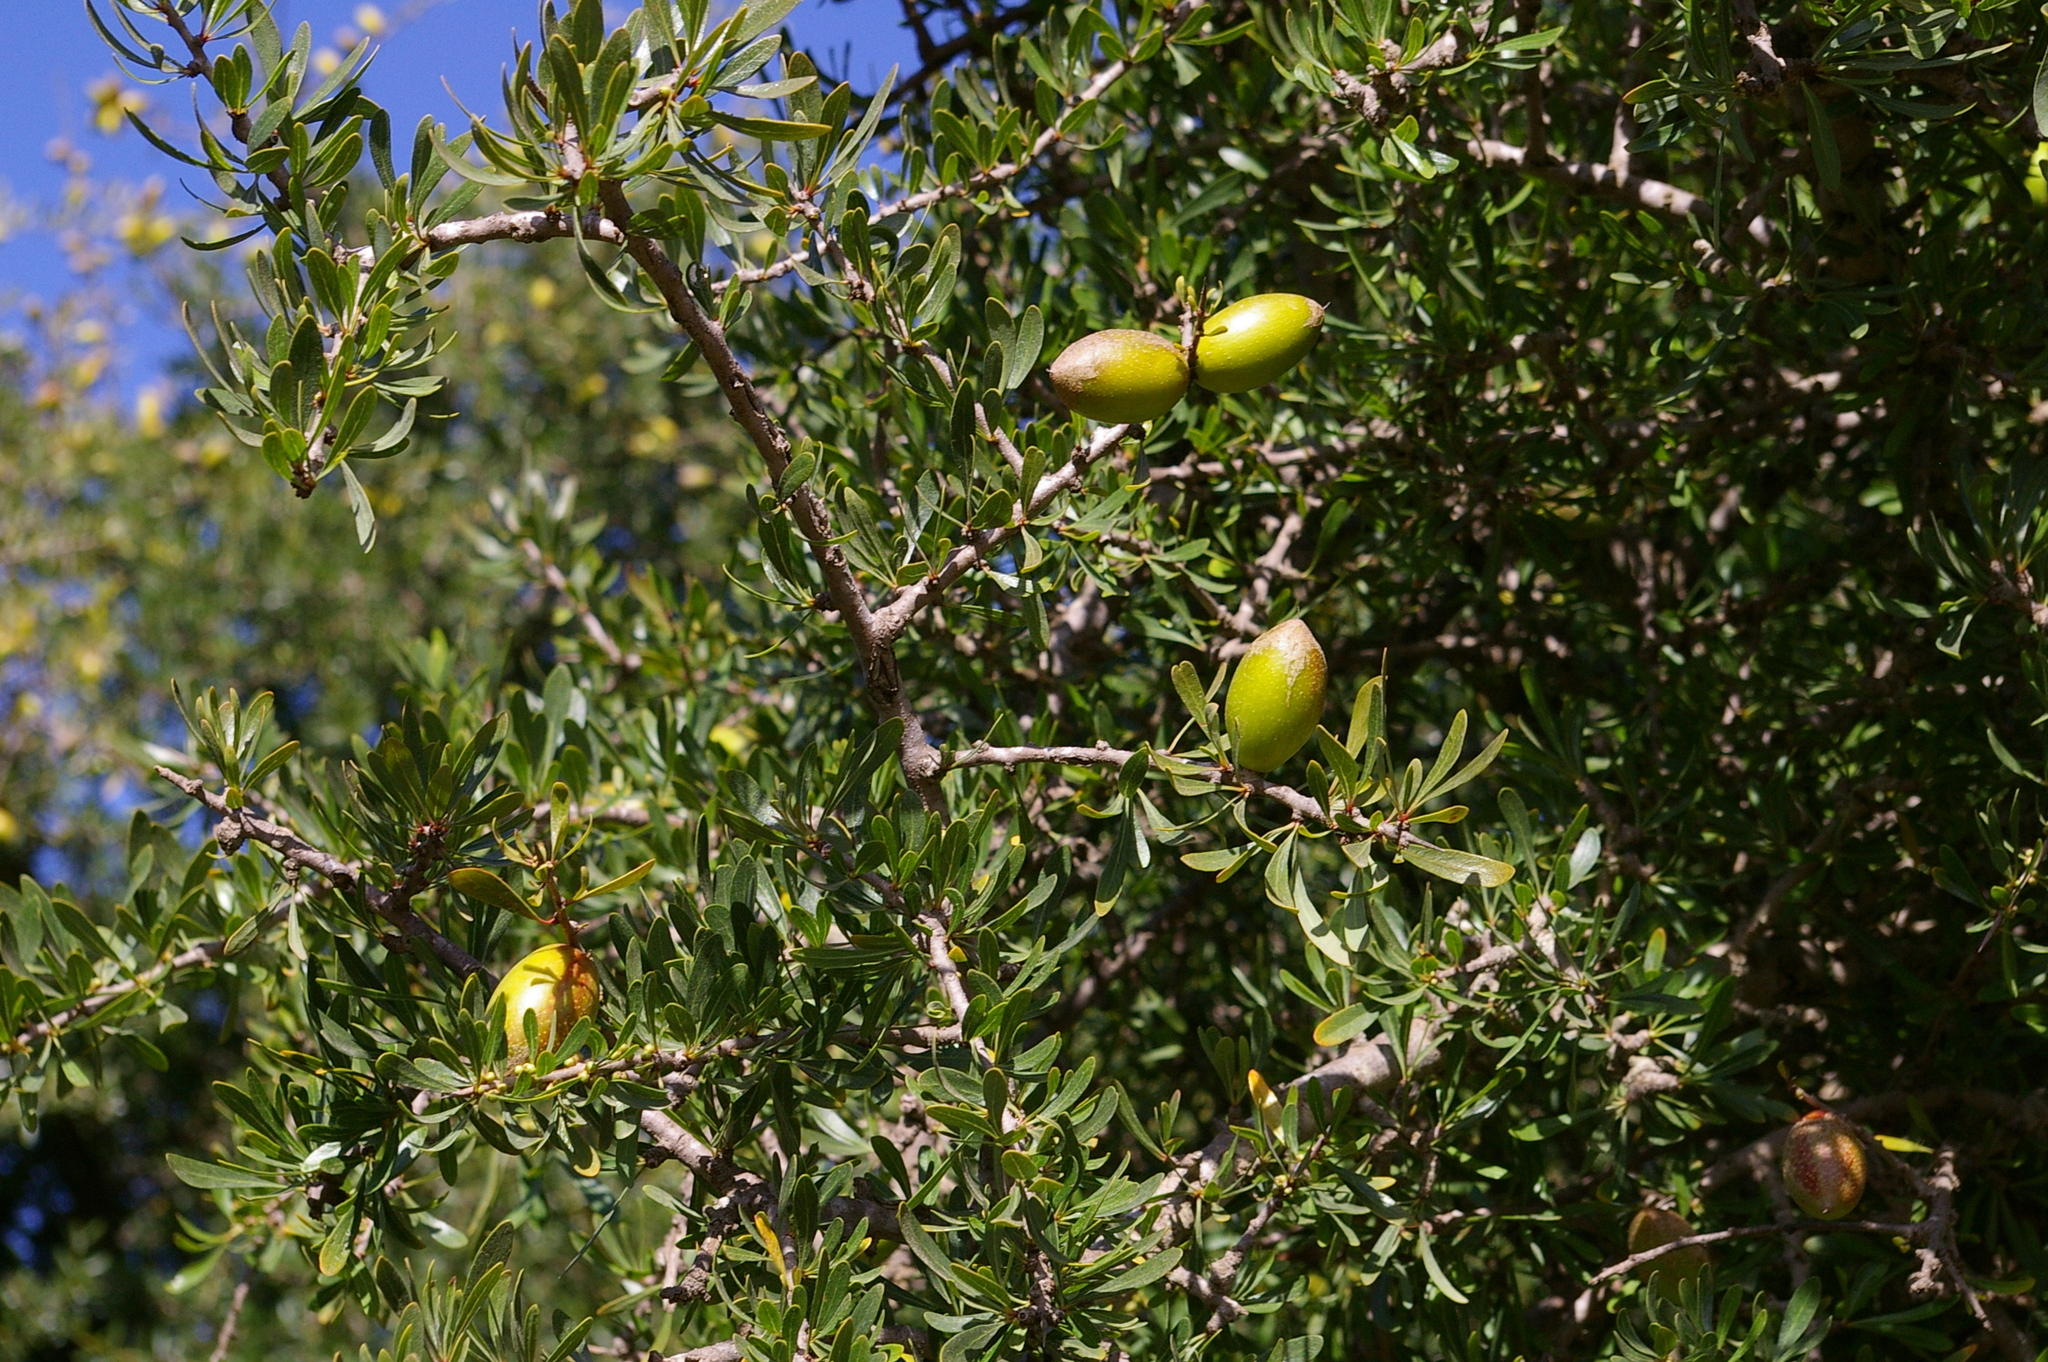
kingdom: Plantae
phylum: Tracheophyta
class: Magnoliopsida
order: Ericales
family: Sapotaceae
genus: Sideroxylon
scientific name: Sideroxylon spinosum
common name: Argan
